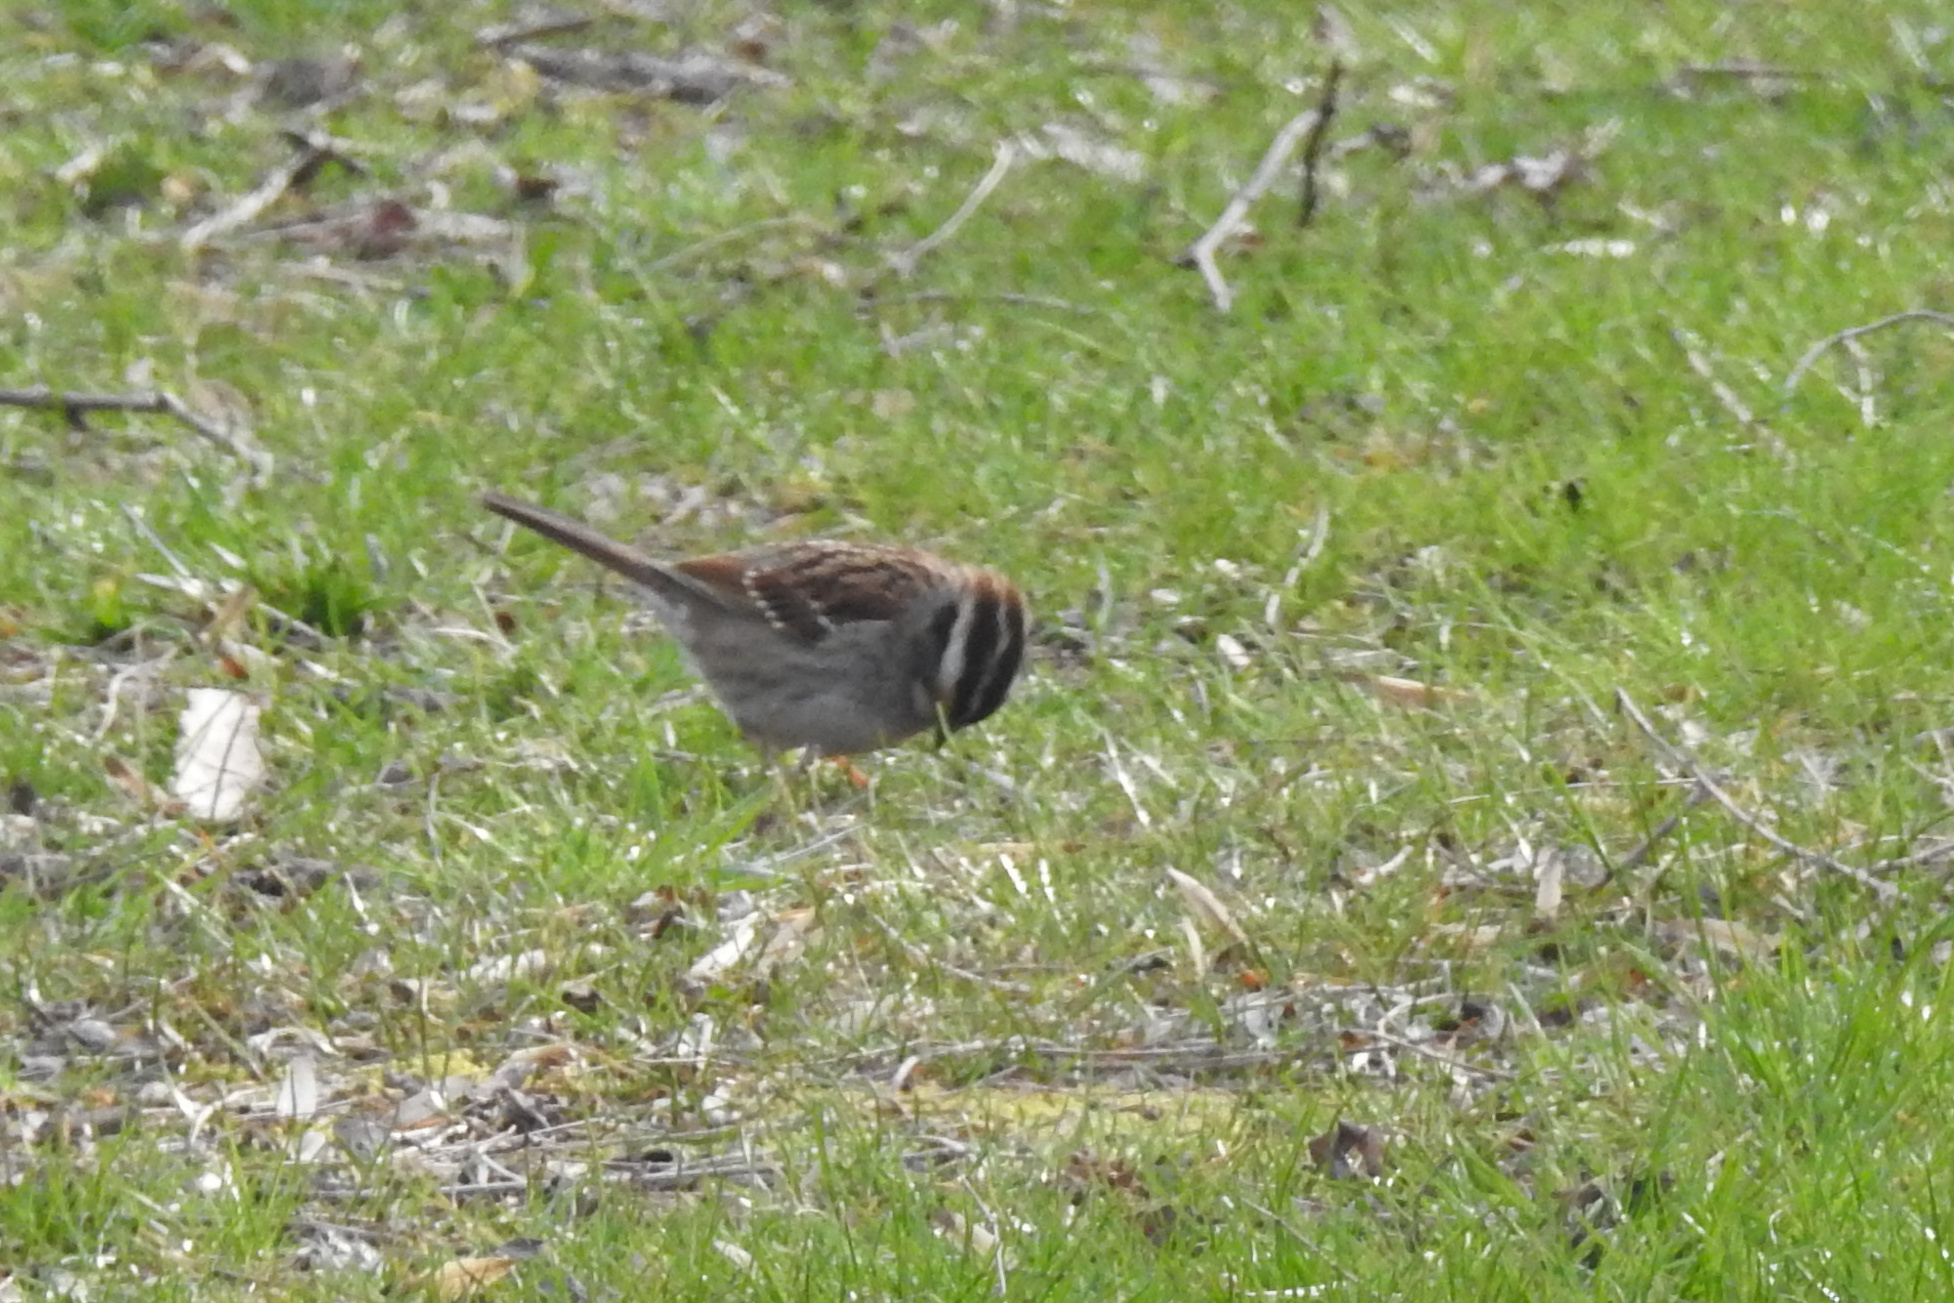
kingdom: Animalia
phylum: Chordata
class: Aves
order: Passeriformes
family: Passerellidae
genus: Zonotrichia
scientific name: Zonotrichia albicollis
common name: White-throated sparrow
